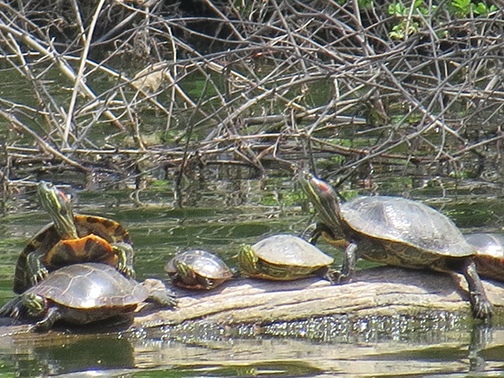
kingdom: Animalia
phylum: Chordata
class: Testudines
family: Emydidae
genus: Trachemys
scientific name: Trachemys scripta
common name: Slider
